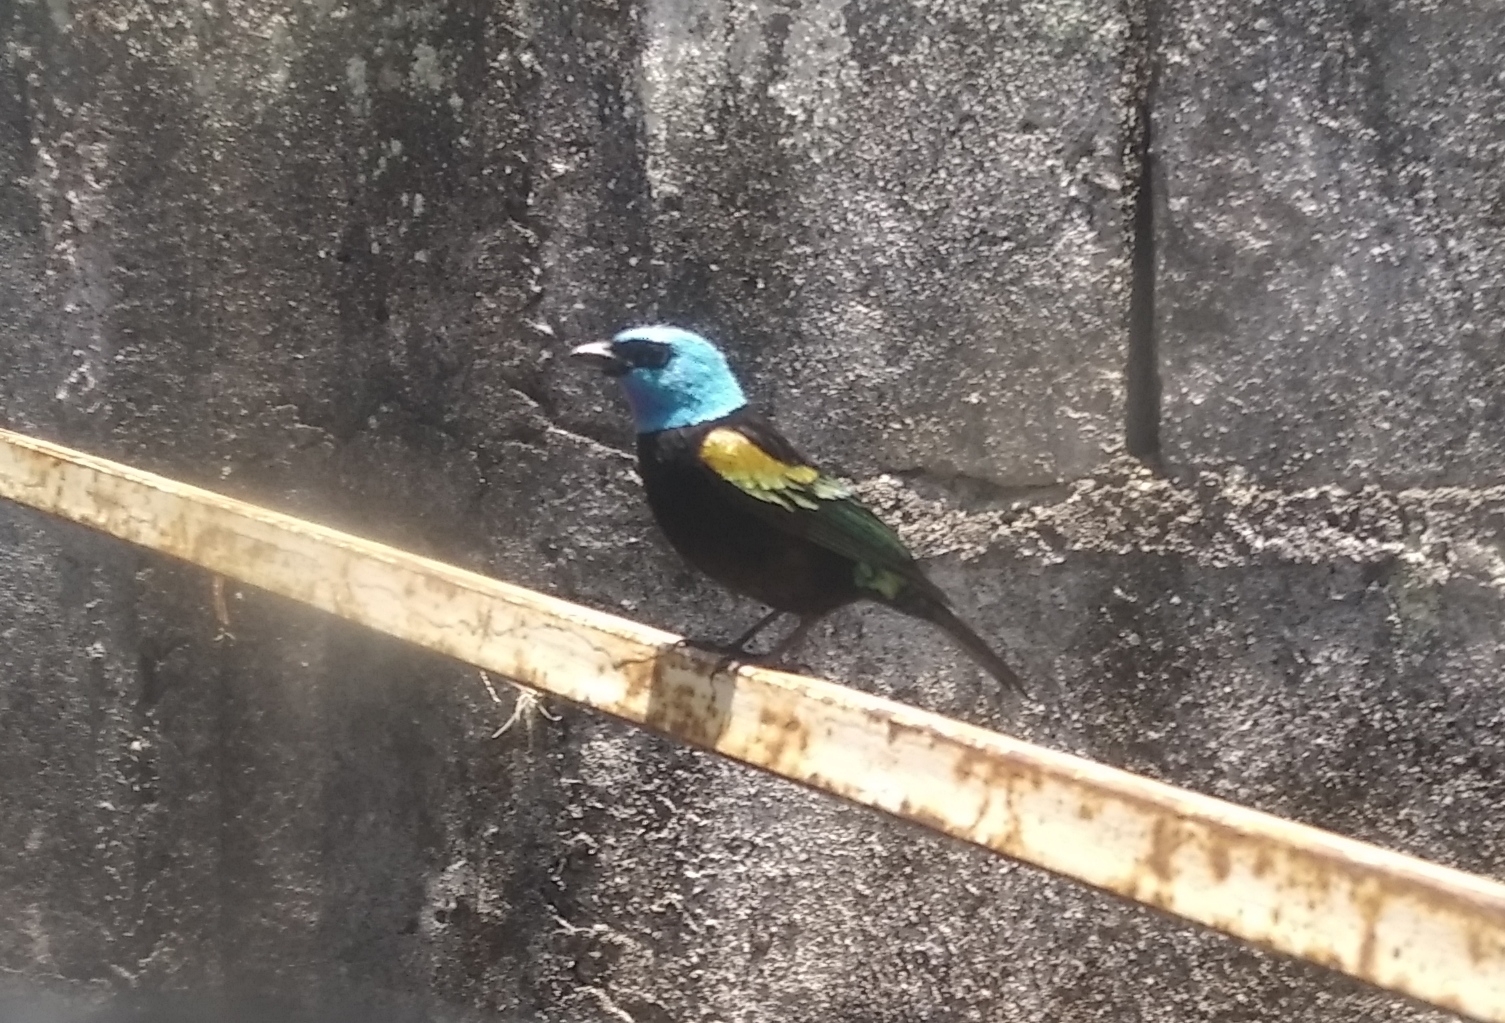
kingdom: Animalia
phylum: Chordata
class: Aves
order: Passeriformes
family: Thraupidae
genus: Stilpnia
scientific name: Stilpnia cyanicollis
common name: Blue-necked tanager
